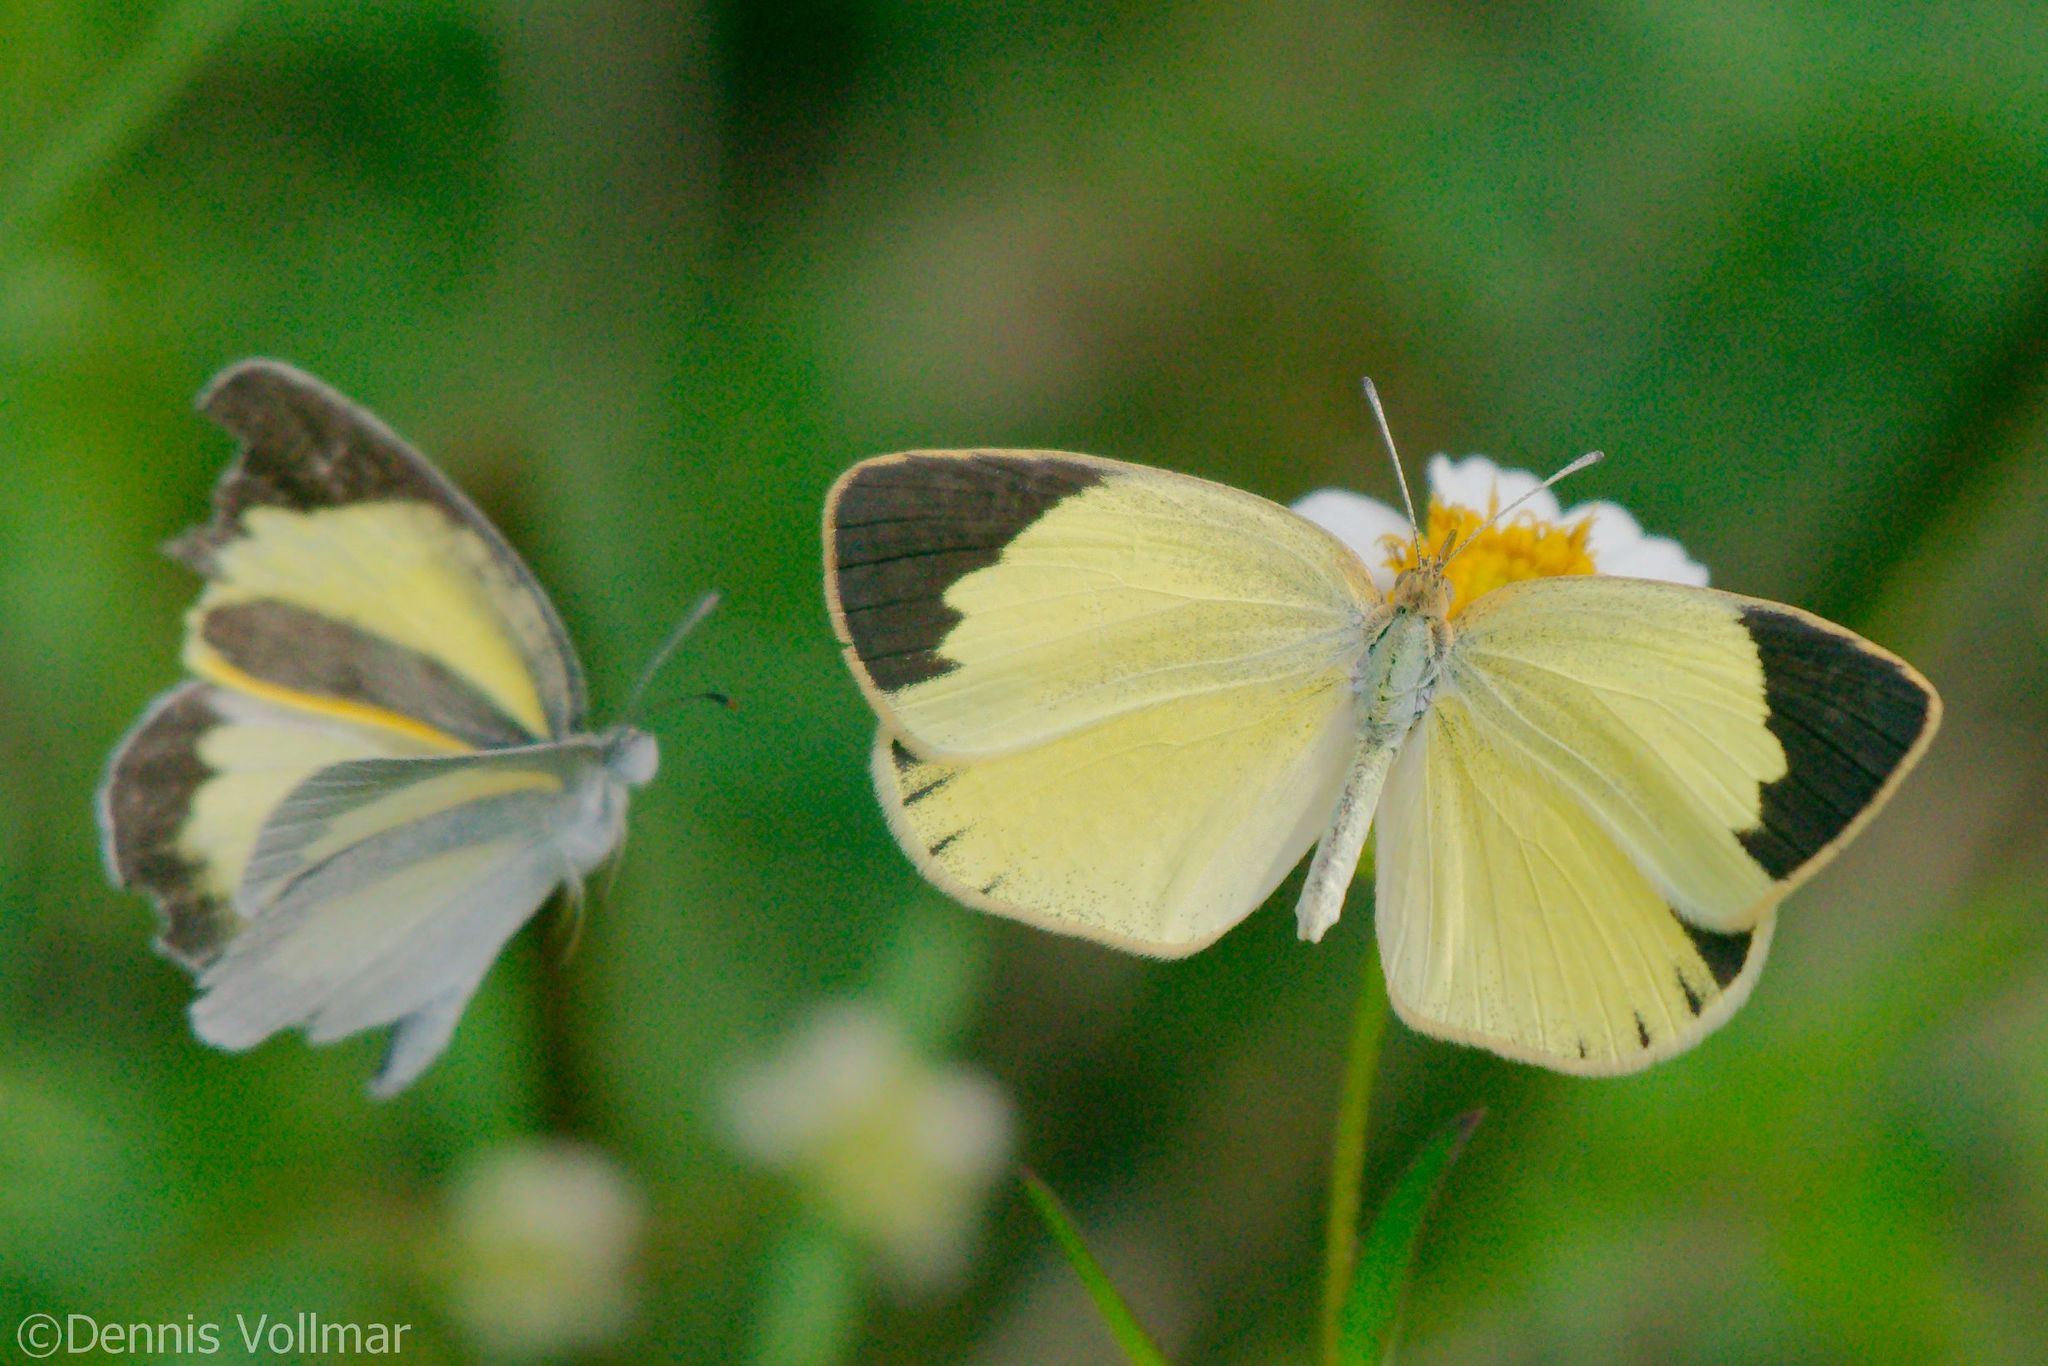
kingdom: Animalia
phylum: Arthropoda
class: Insecta
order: Lepidoptera
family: Pieridae
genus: Eurema
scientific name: Eurema daira
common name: Barred sulphur
